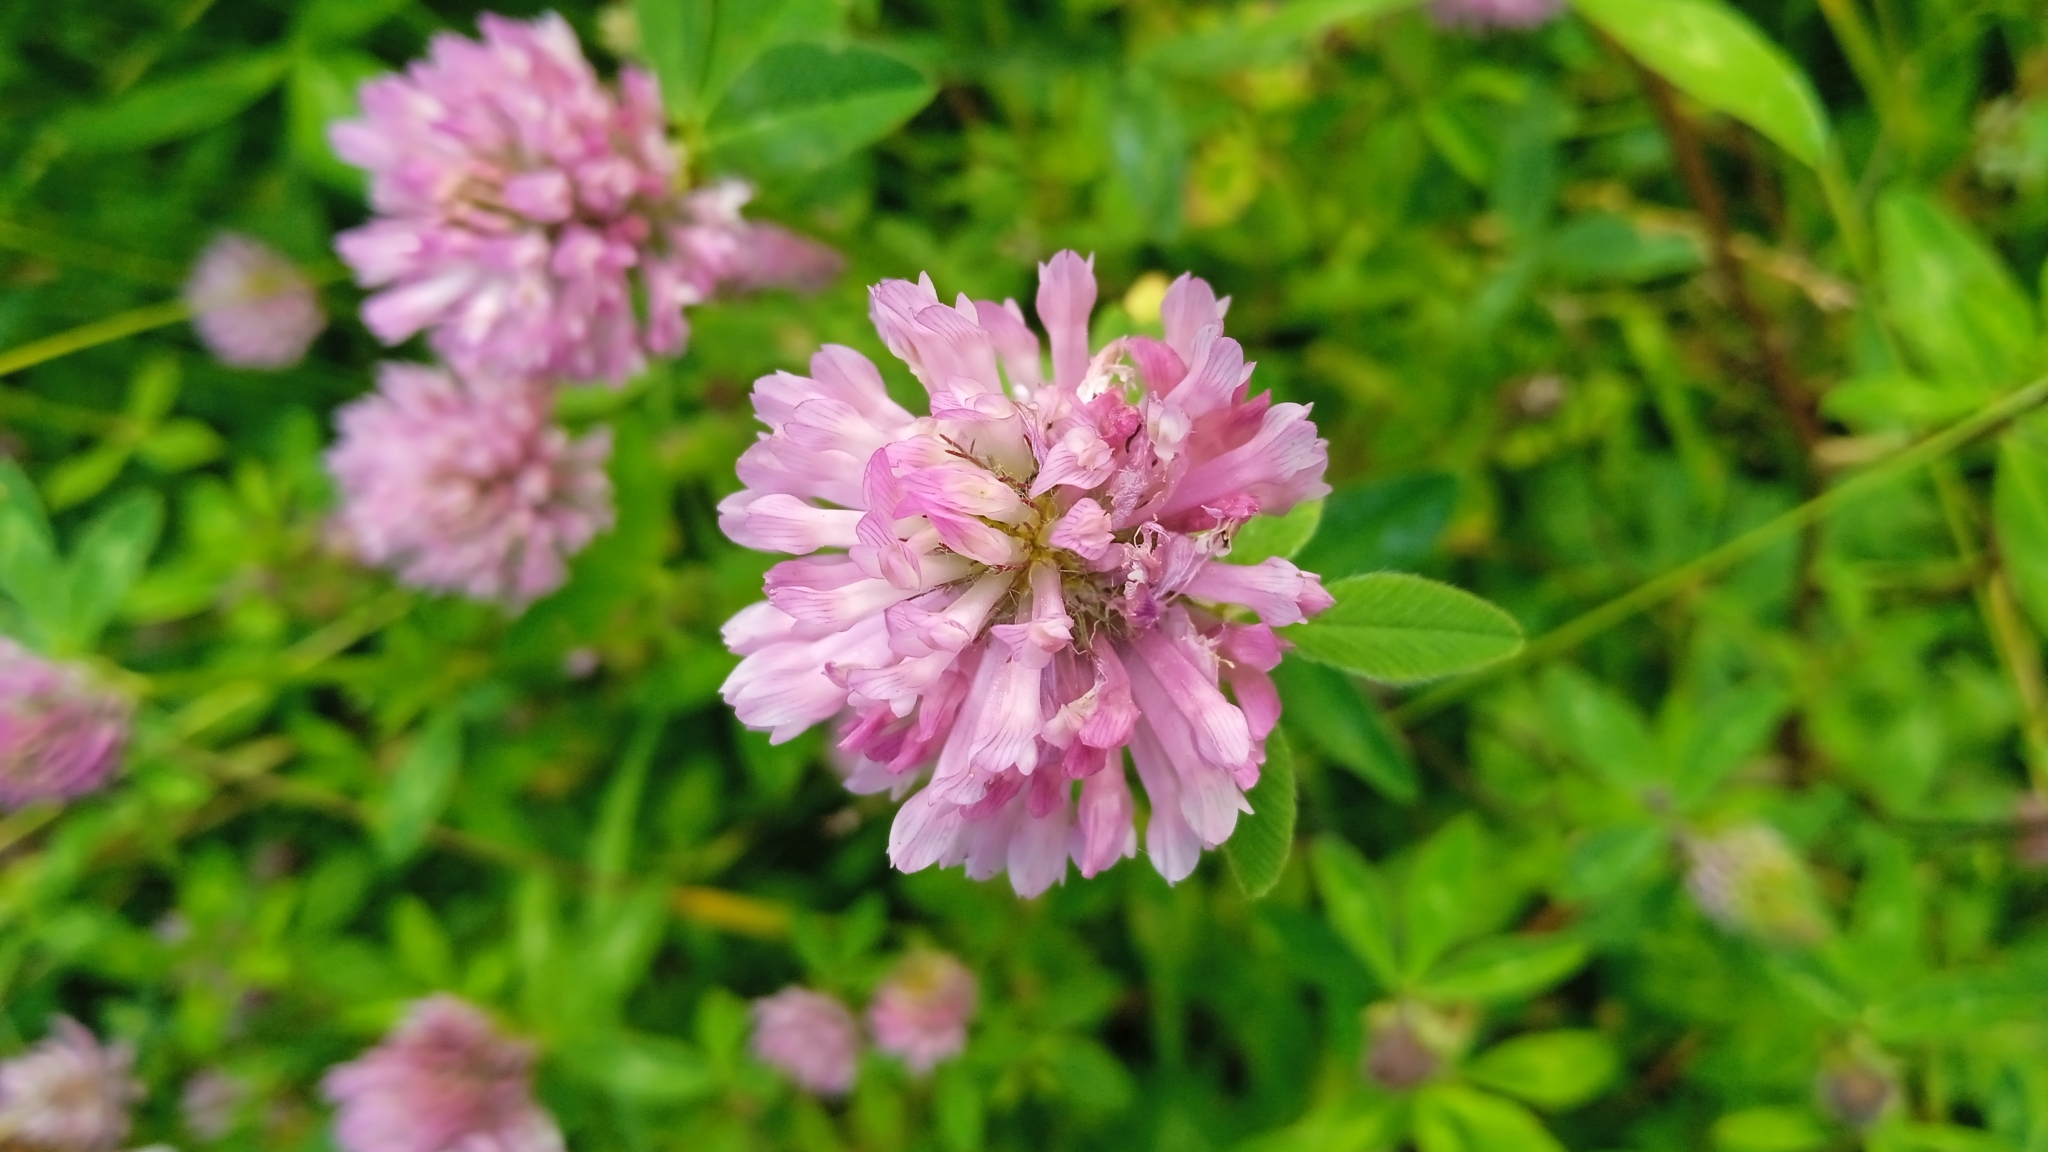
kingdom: Plantae
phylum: Tracheophyta
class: Magnoliopsida
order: Fabales
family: Fabaceae
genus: Trifolium
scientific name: Trifolium pratense
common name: Red clover
